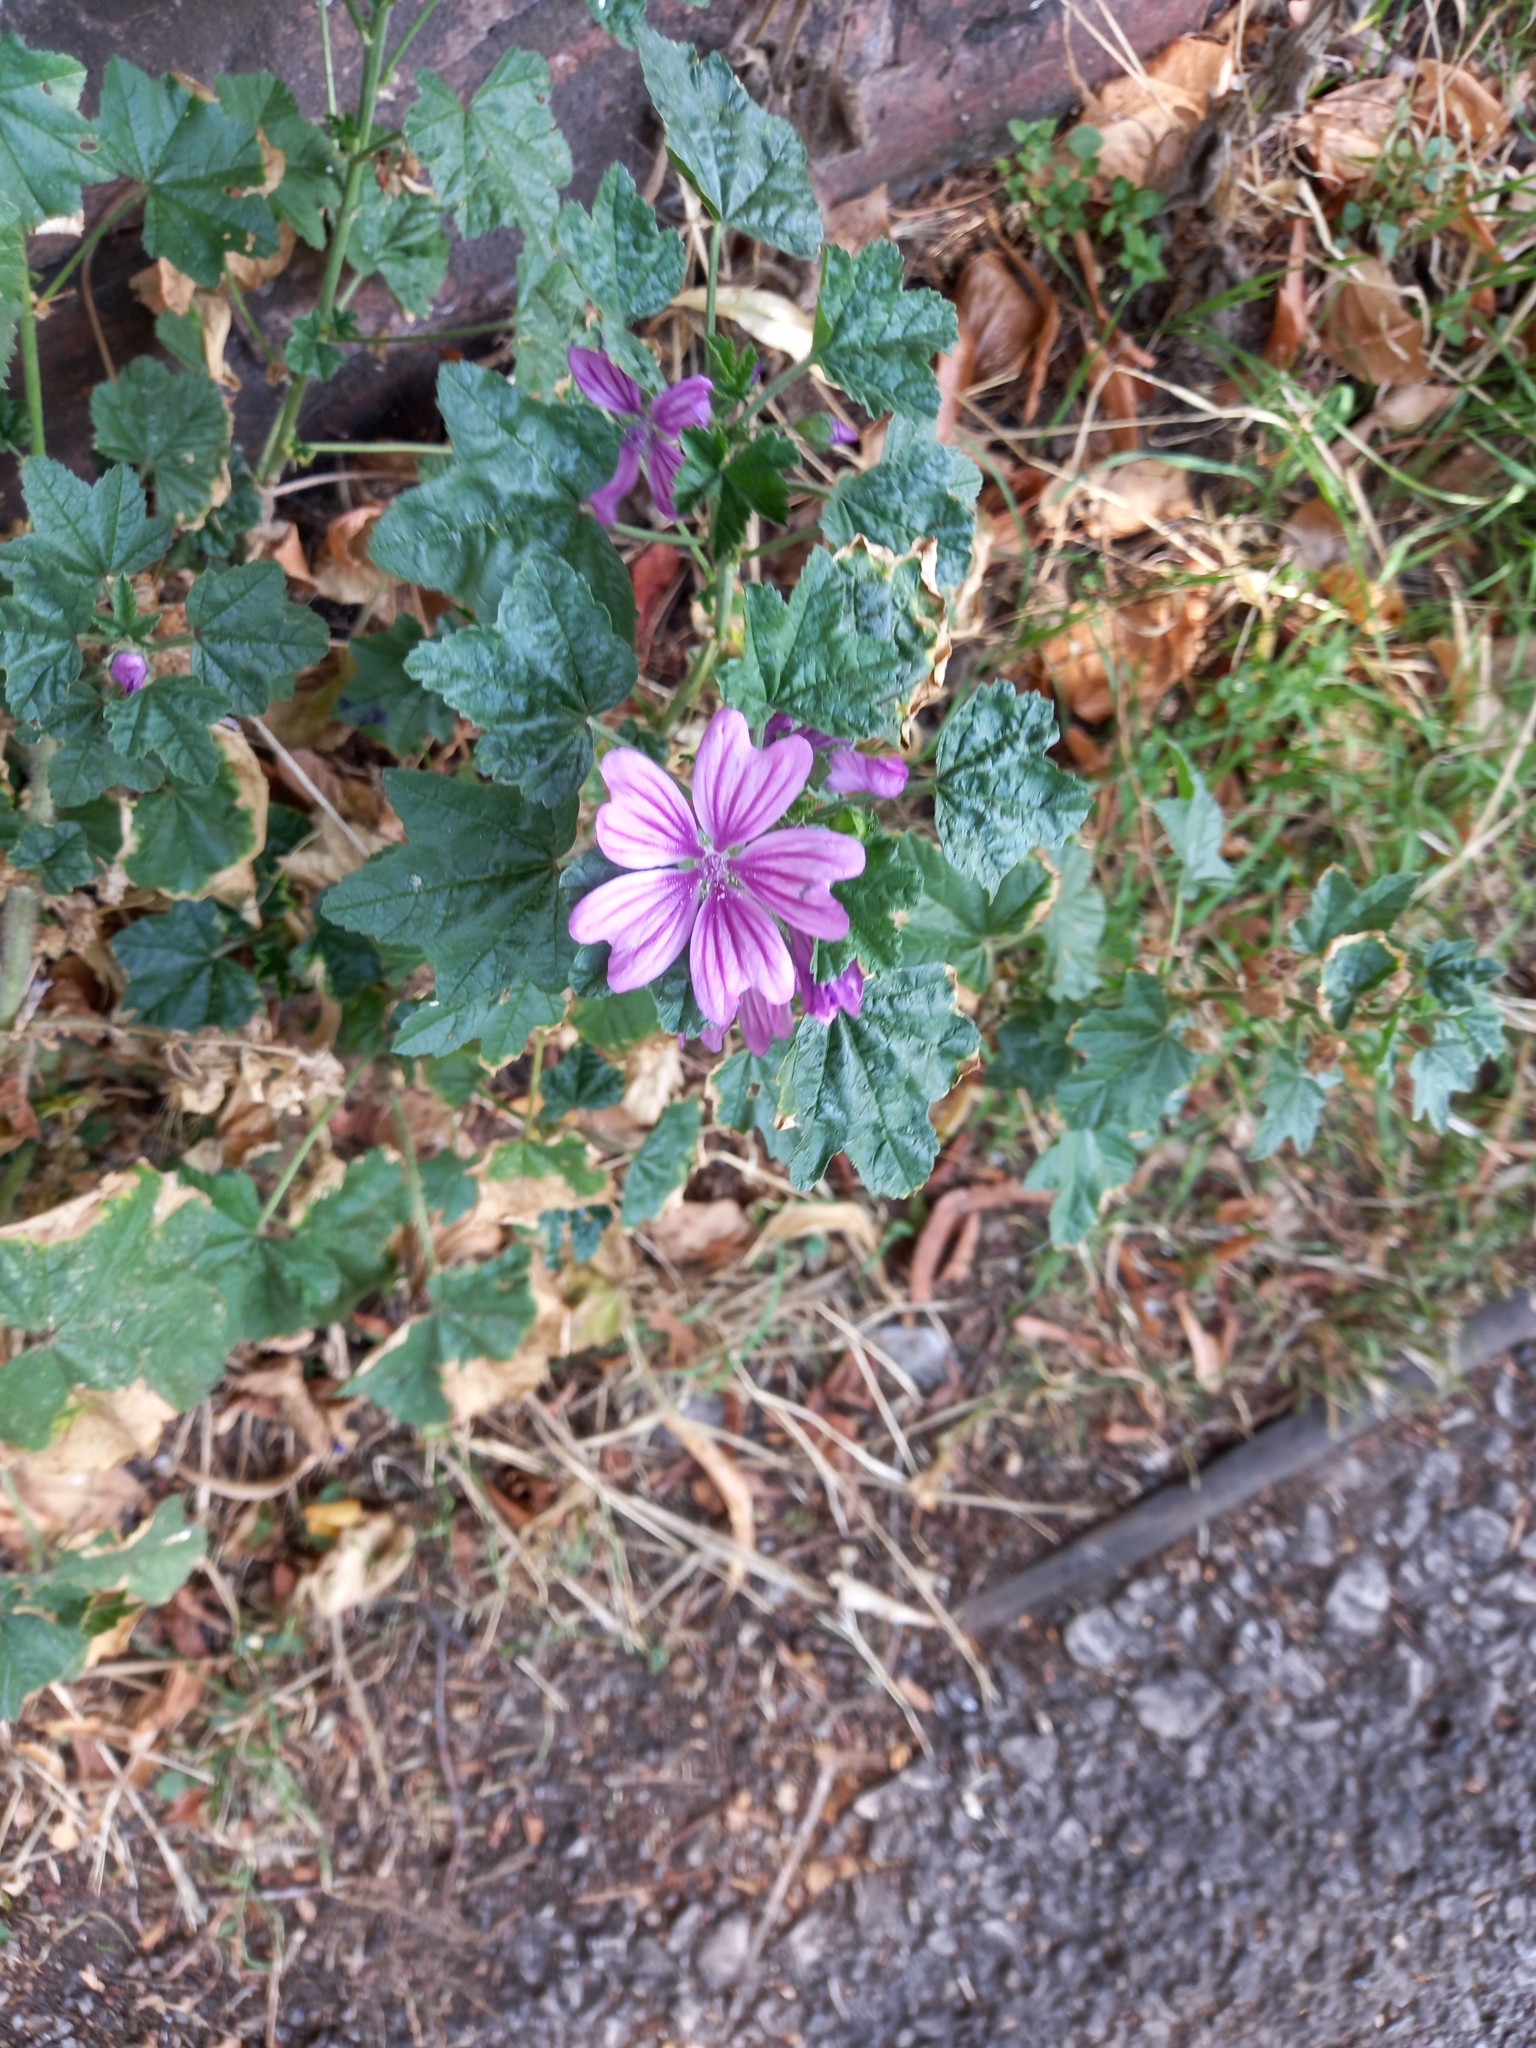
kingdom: Plantae
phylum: Tracheophyta
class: Magnoliopsida
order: Malvales
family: Malvaceae
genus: Malva
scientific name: Malva sylvestris
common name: Common mallow
